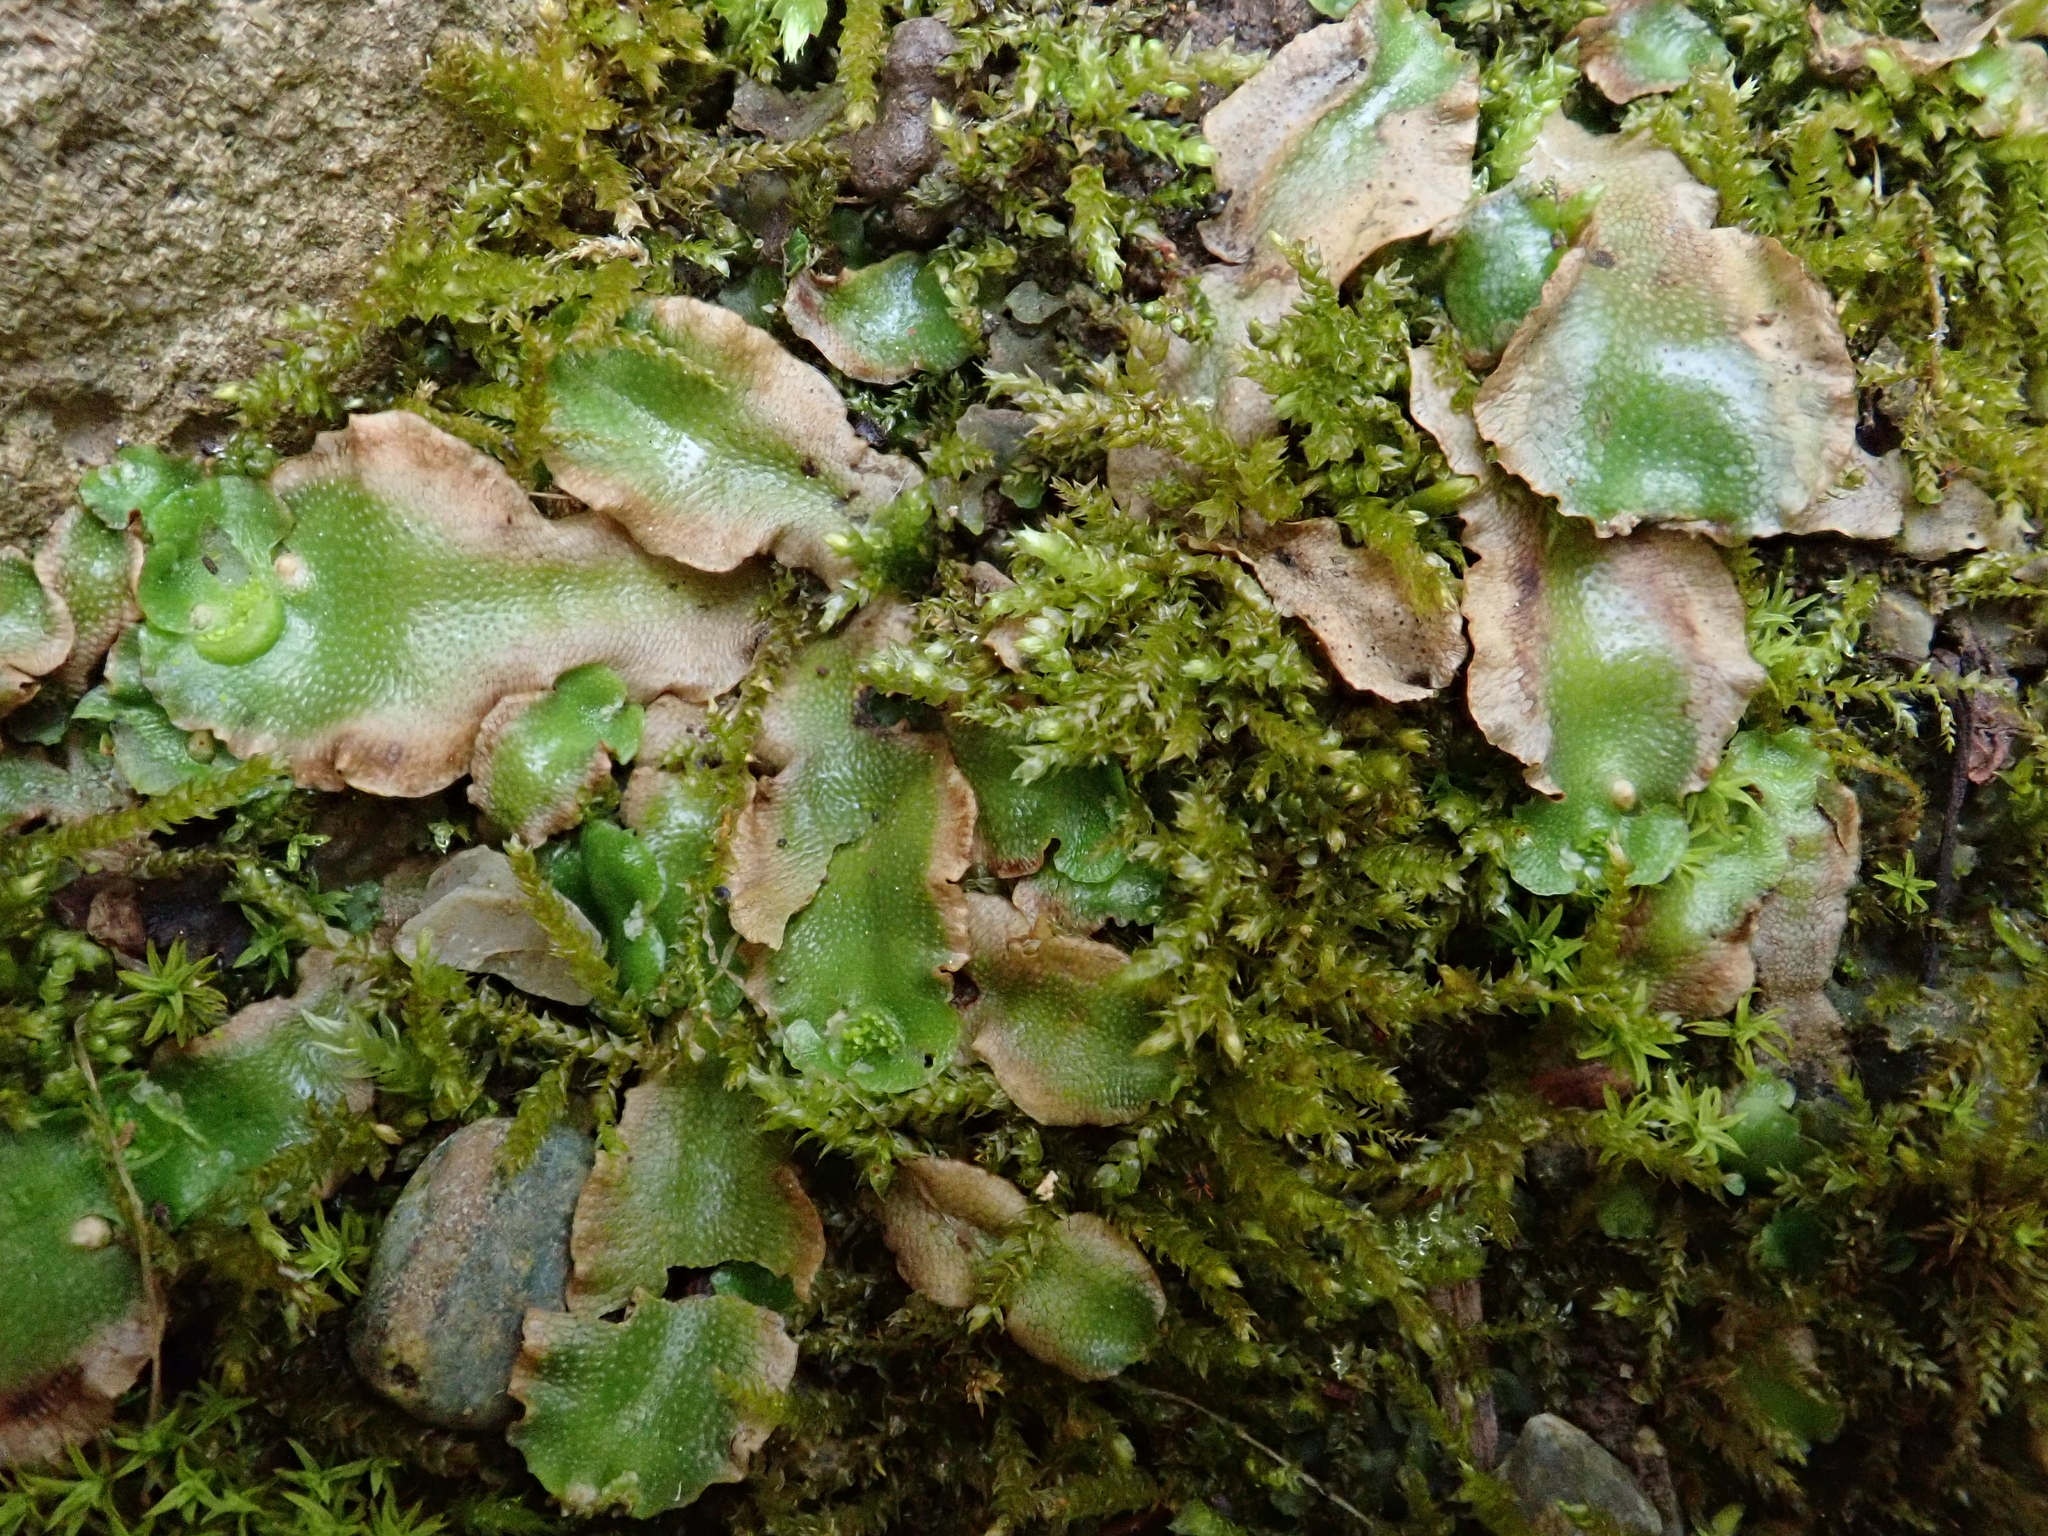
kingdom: Plantae
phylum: Marchantiophyta
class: Marchantiopsida
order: Lunulariales
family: Lunulariaceae
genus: Lunularia
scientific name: Lunularia cruciata
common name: Crescent-cup liverwort
